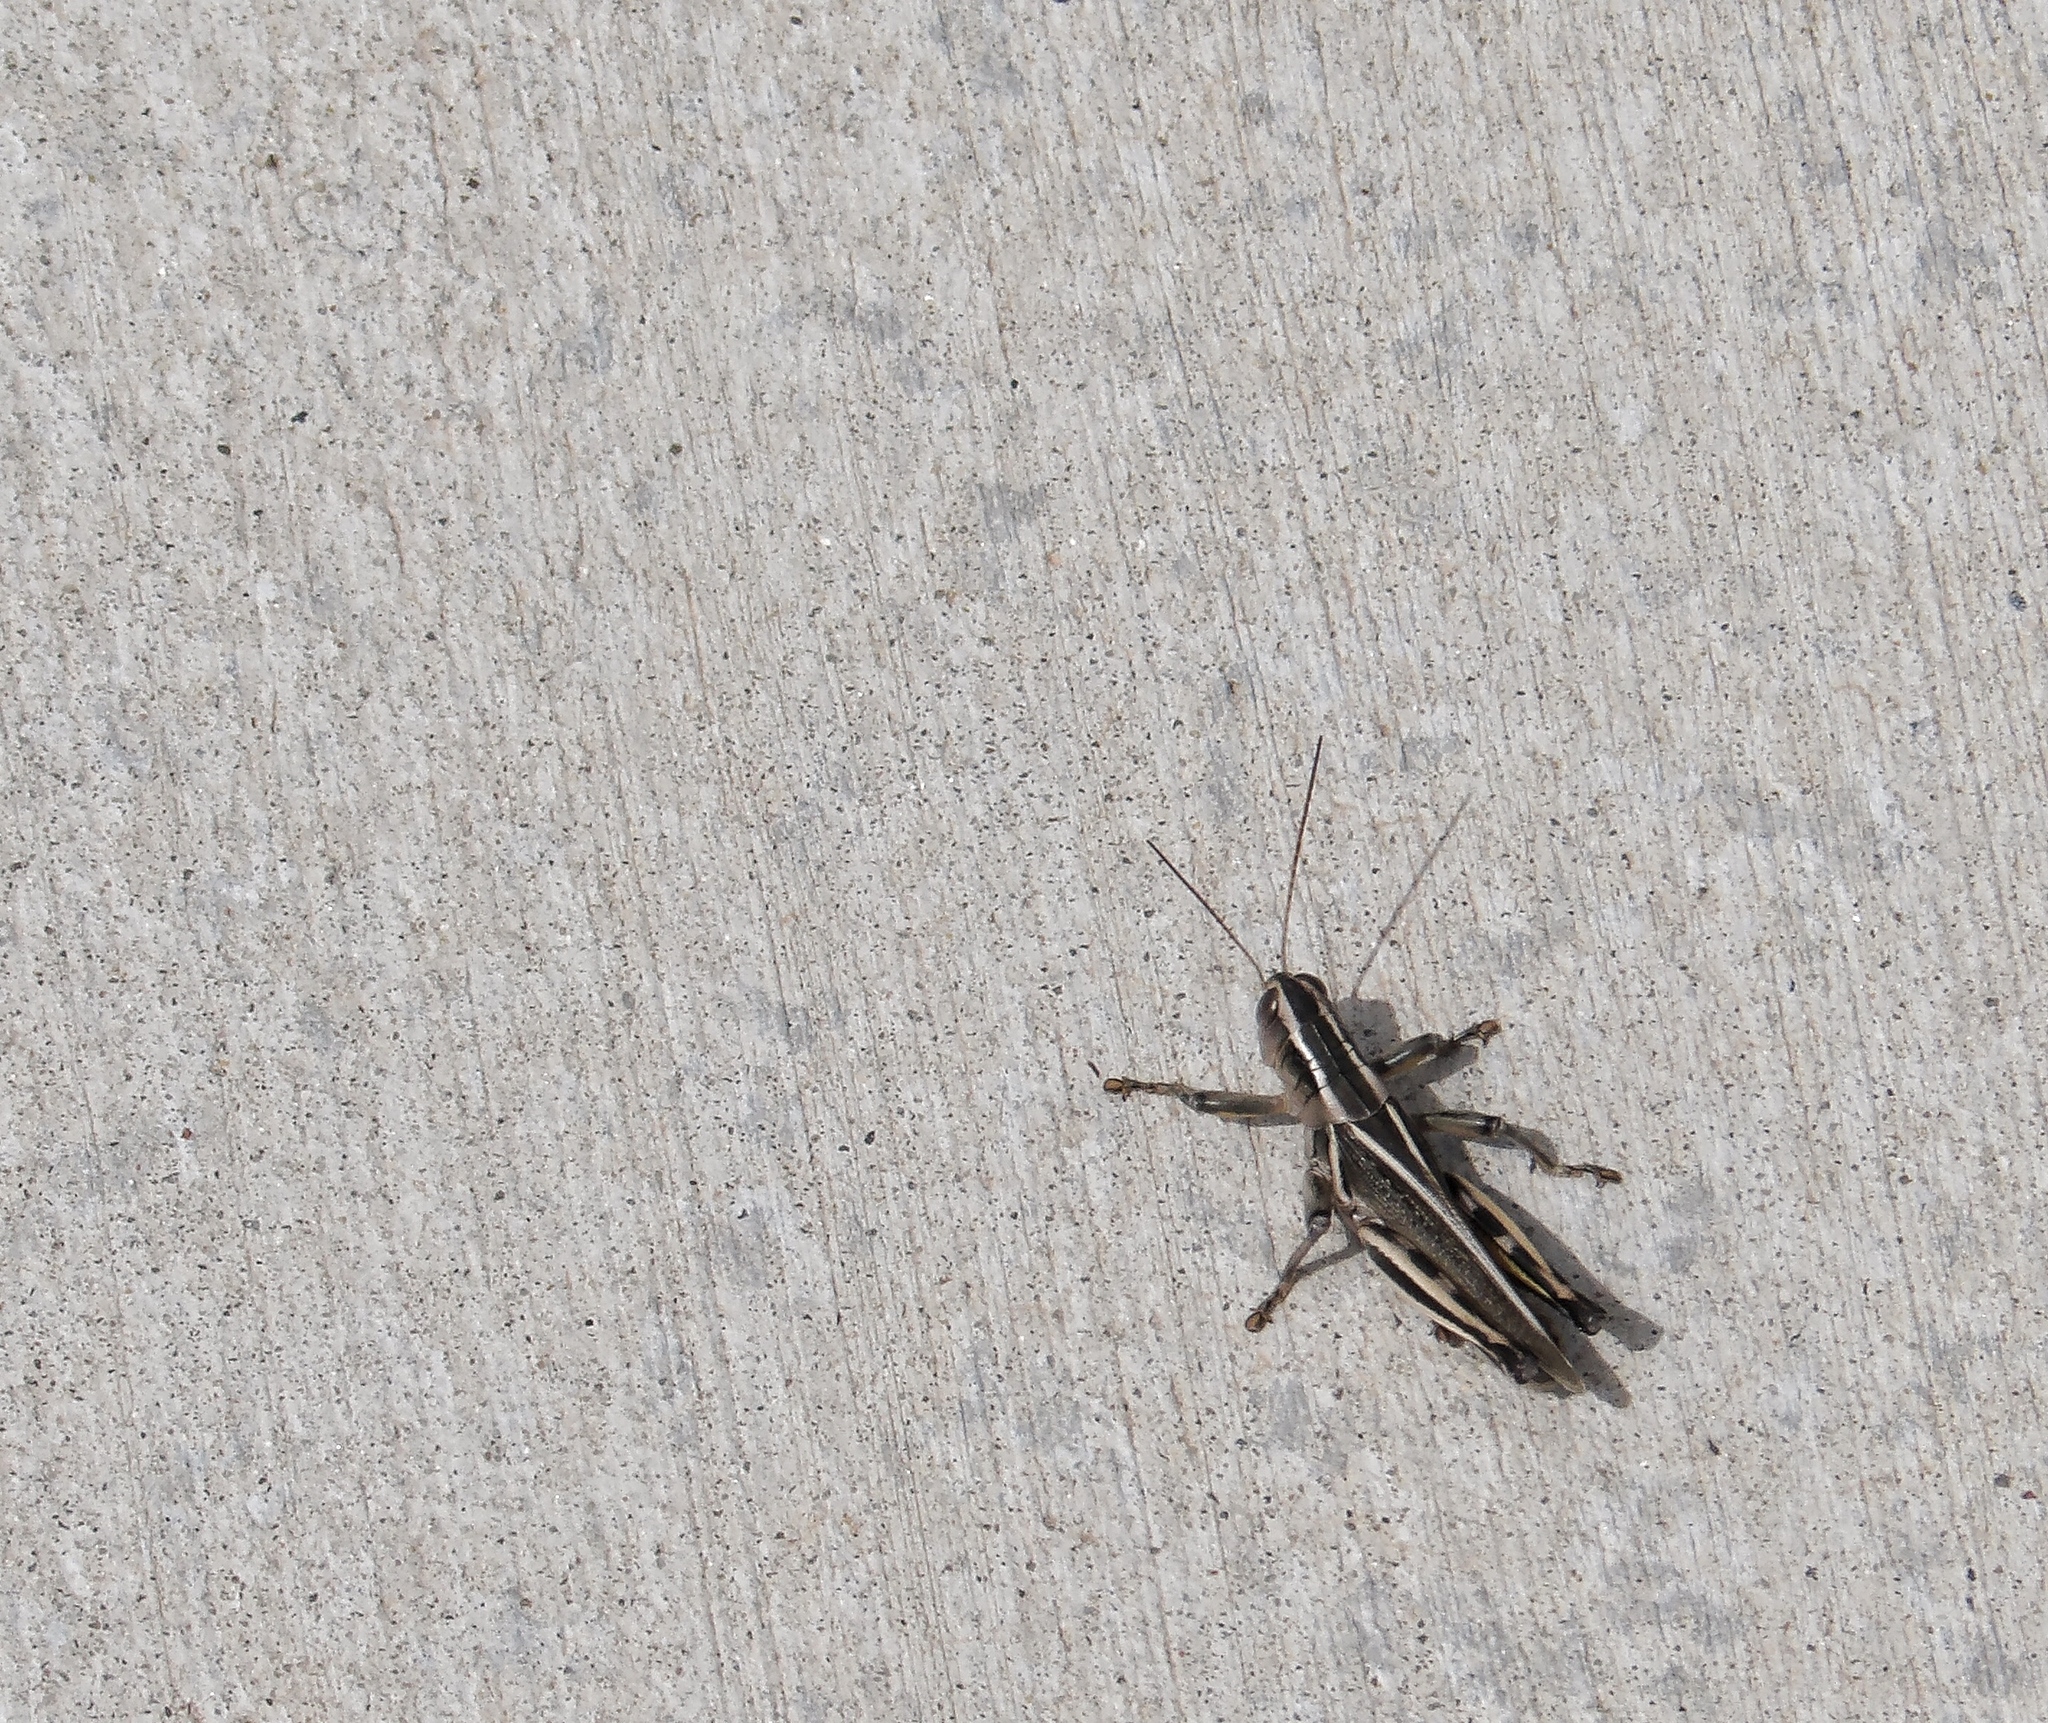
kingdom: Animalia
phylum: Arthropoda
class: Insecta
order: Orthoptera
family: Acrididae
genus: Melanoplus
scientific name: Melanoplus bivittatus
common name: Two-striped grasshopper
